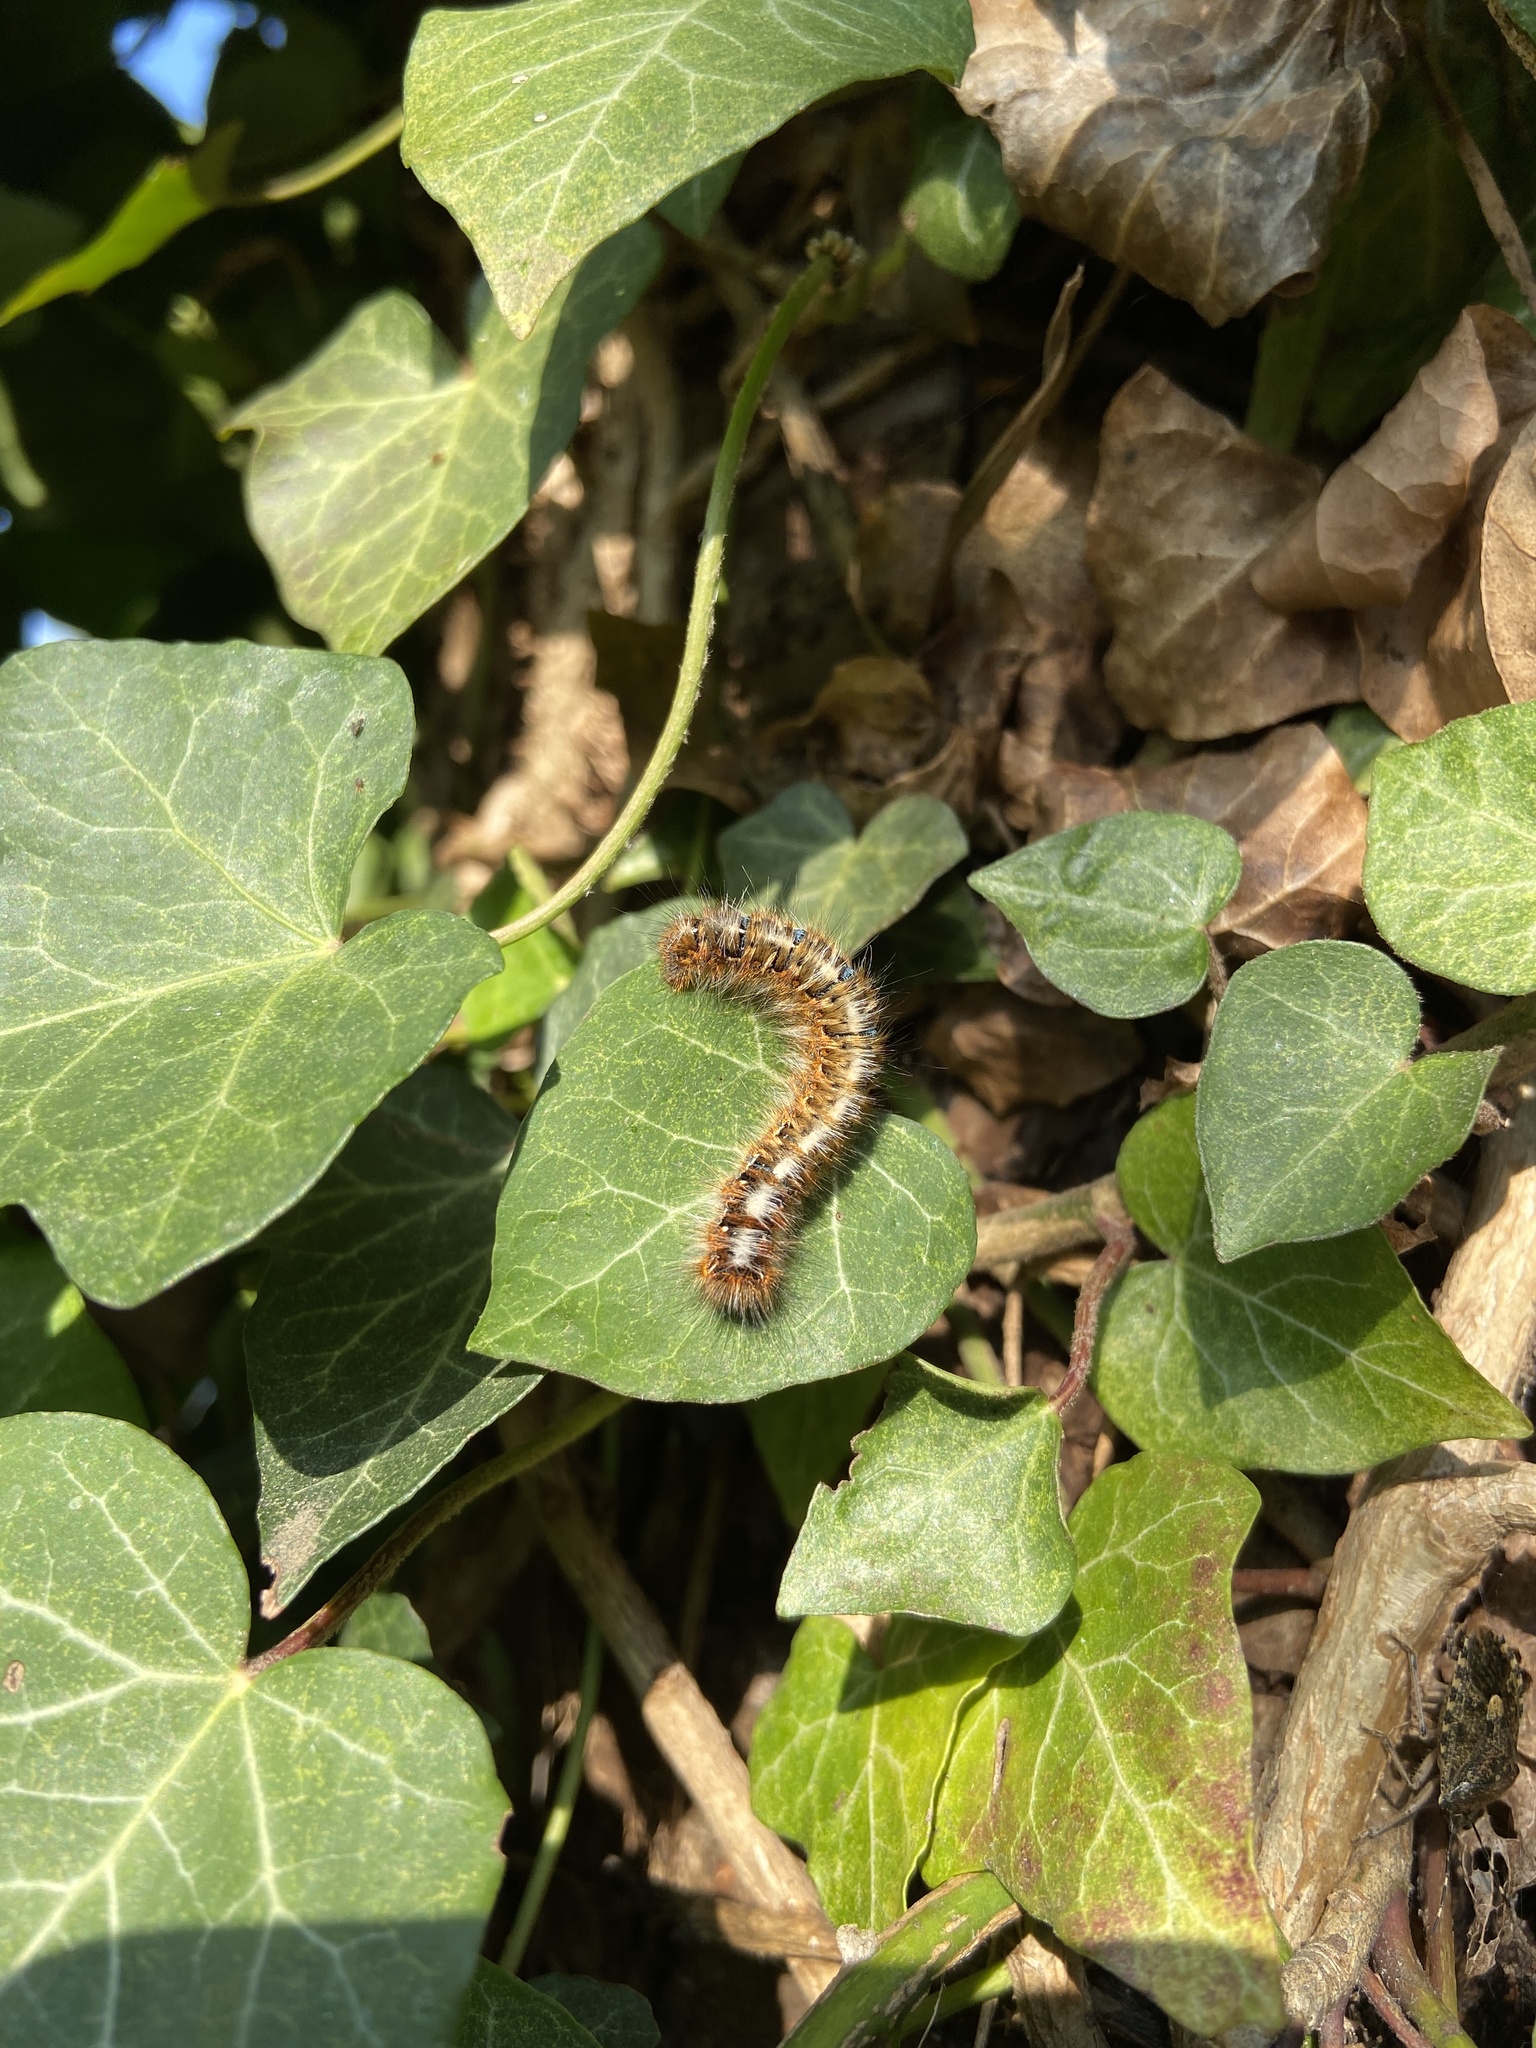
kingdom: Animalia
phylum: Arthropoda
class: Insecta
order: Lepidoptera
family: Lasiocampidae
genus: Lasiocampa
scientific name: Lasiocampa quercus
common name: Oak eggar
